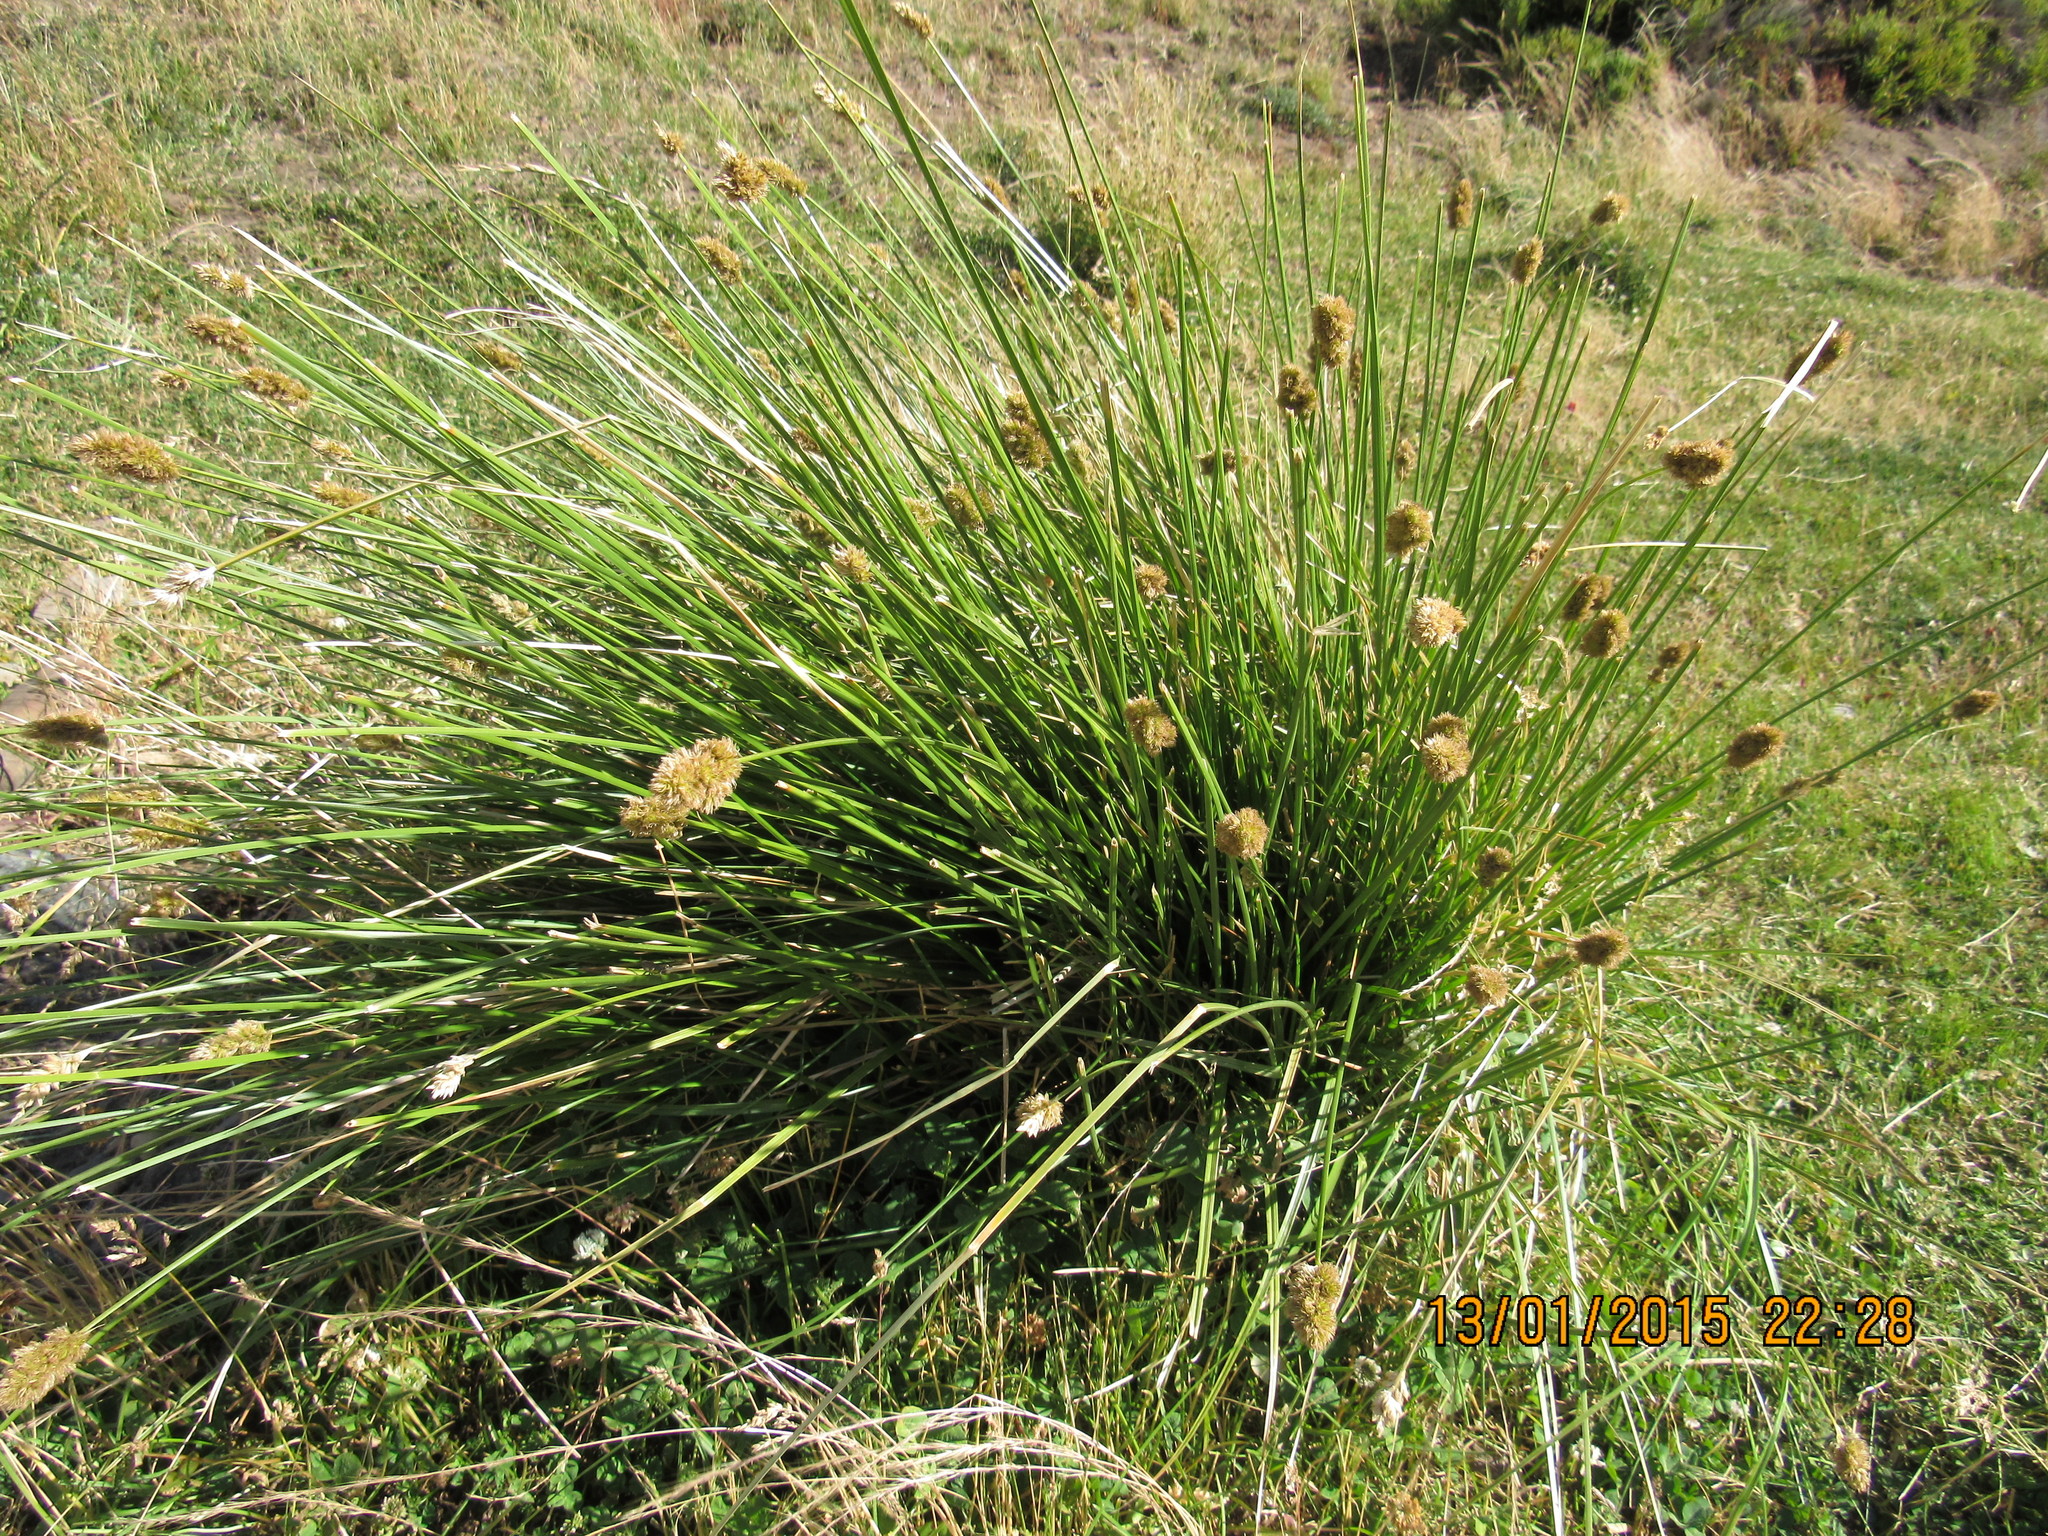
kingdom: Plantae
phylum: Tracheophyta
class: Liliopsida
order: Poales
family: Cyperaceae
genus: Carex
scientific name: Carex hypoleucos
